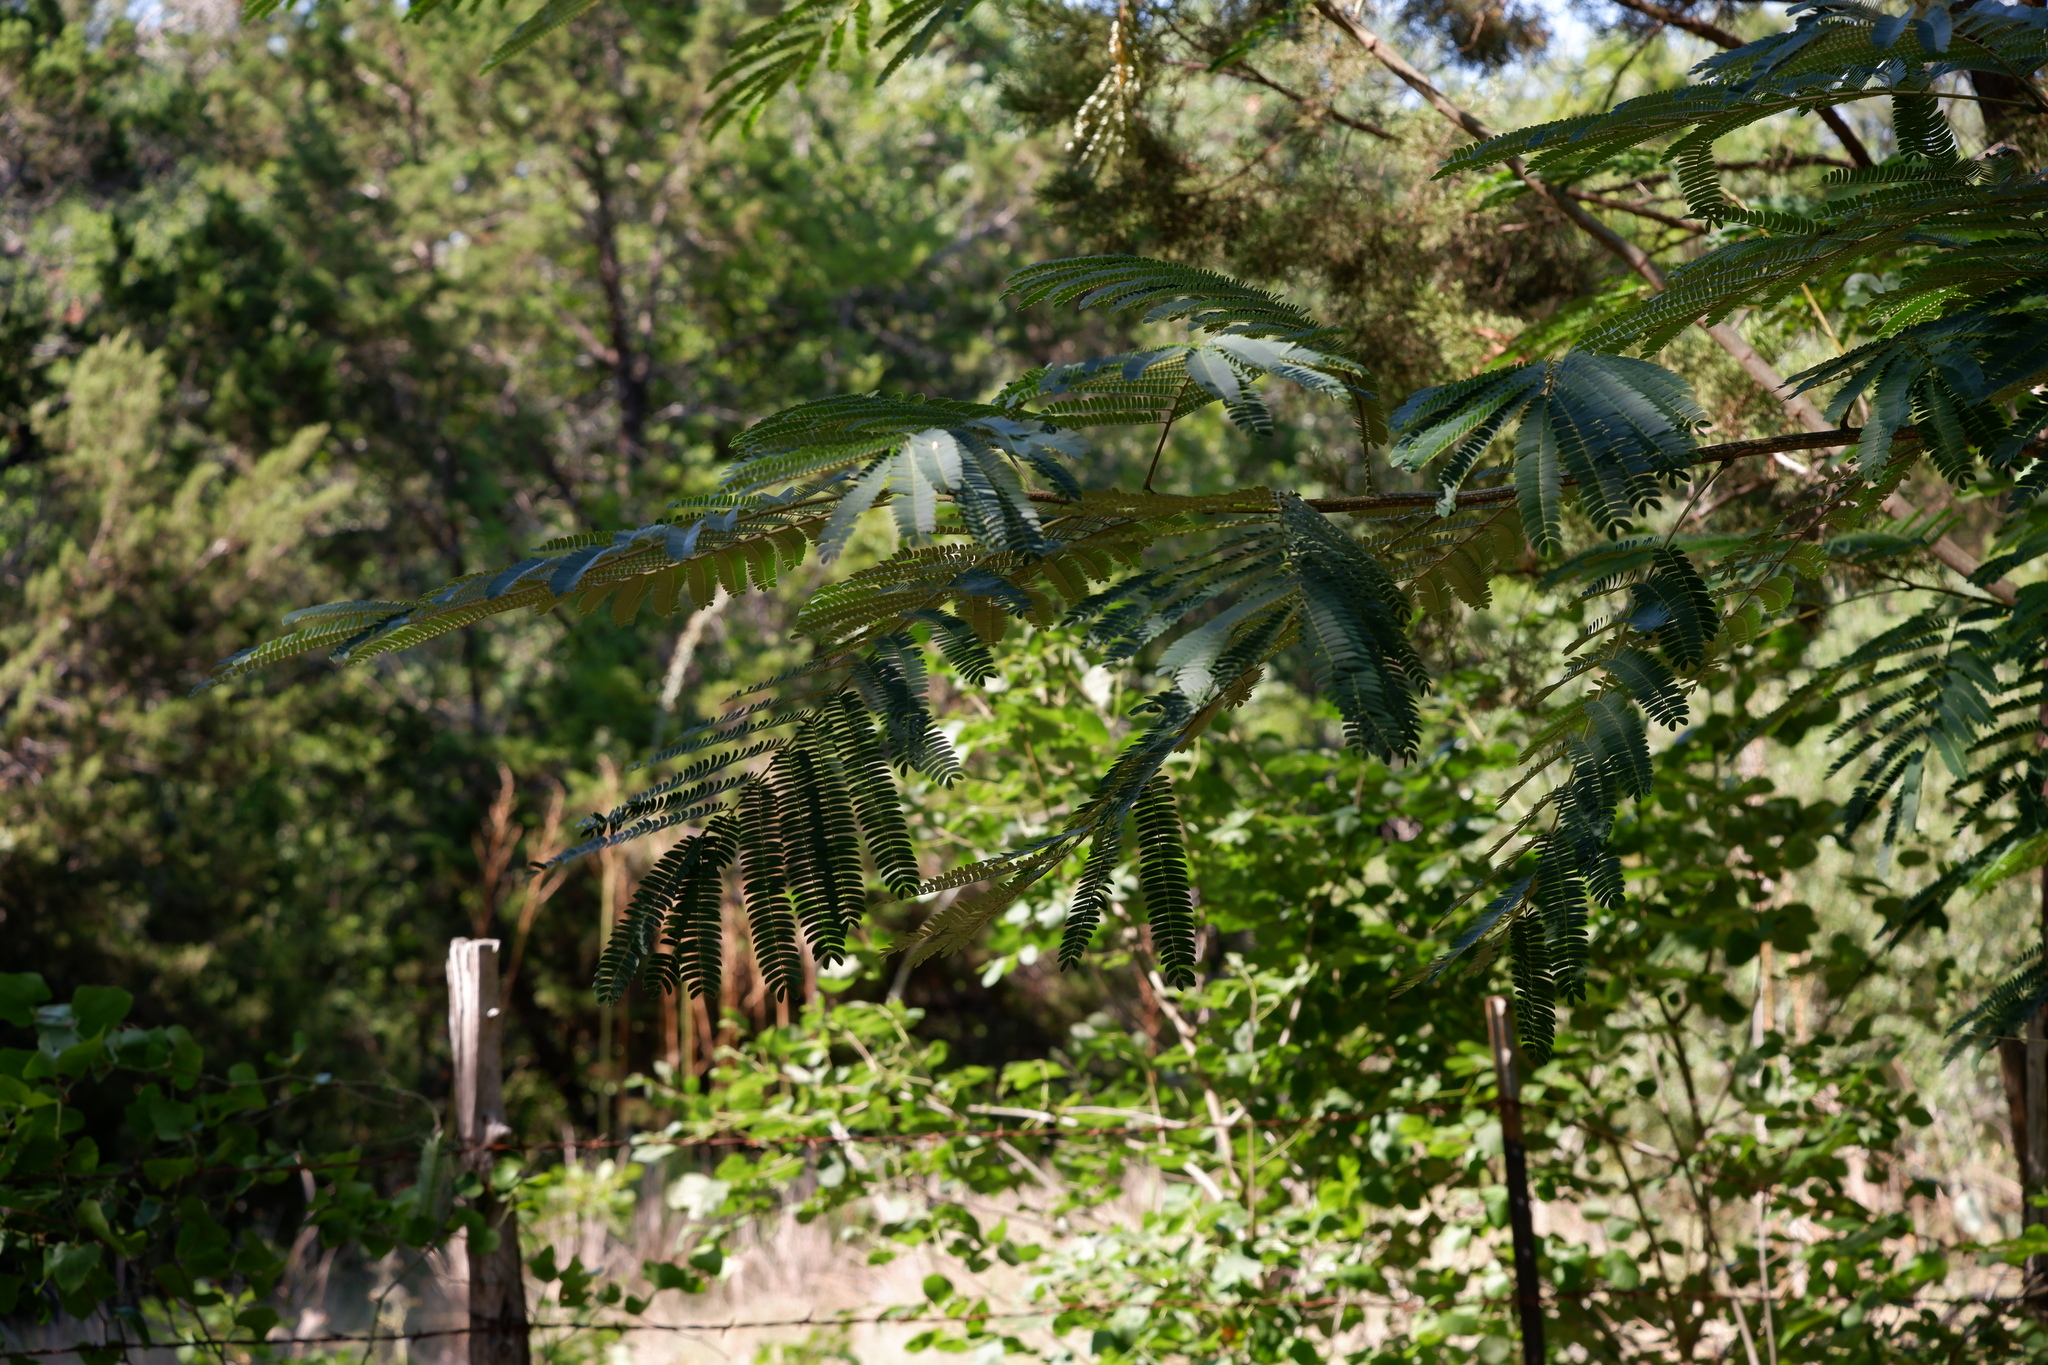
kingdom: Plantae
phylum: Tracheophyta
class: Magnoliopsida
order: Fabales
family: Fabaceae
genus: Albizia
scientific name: Albizia julibrissin
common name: Silktree
